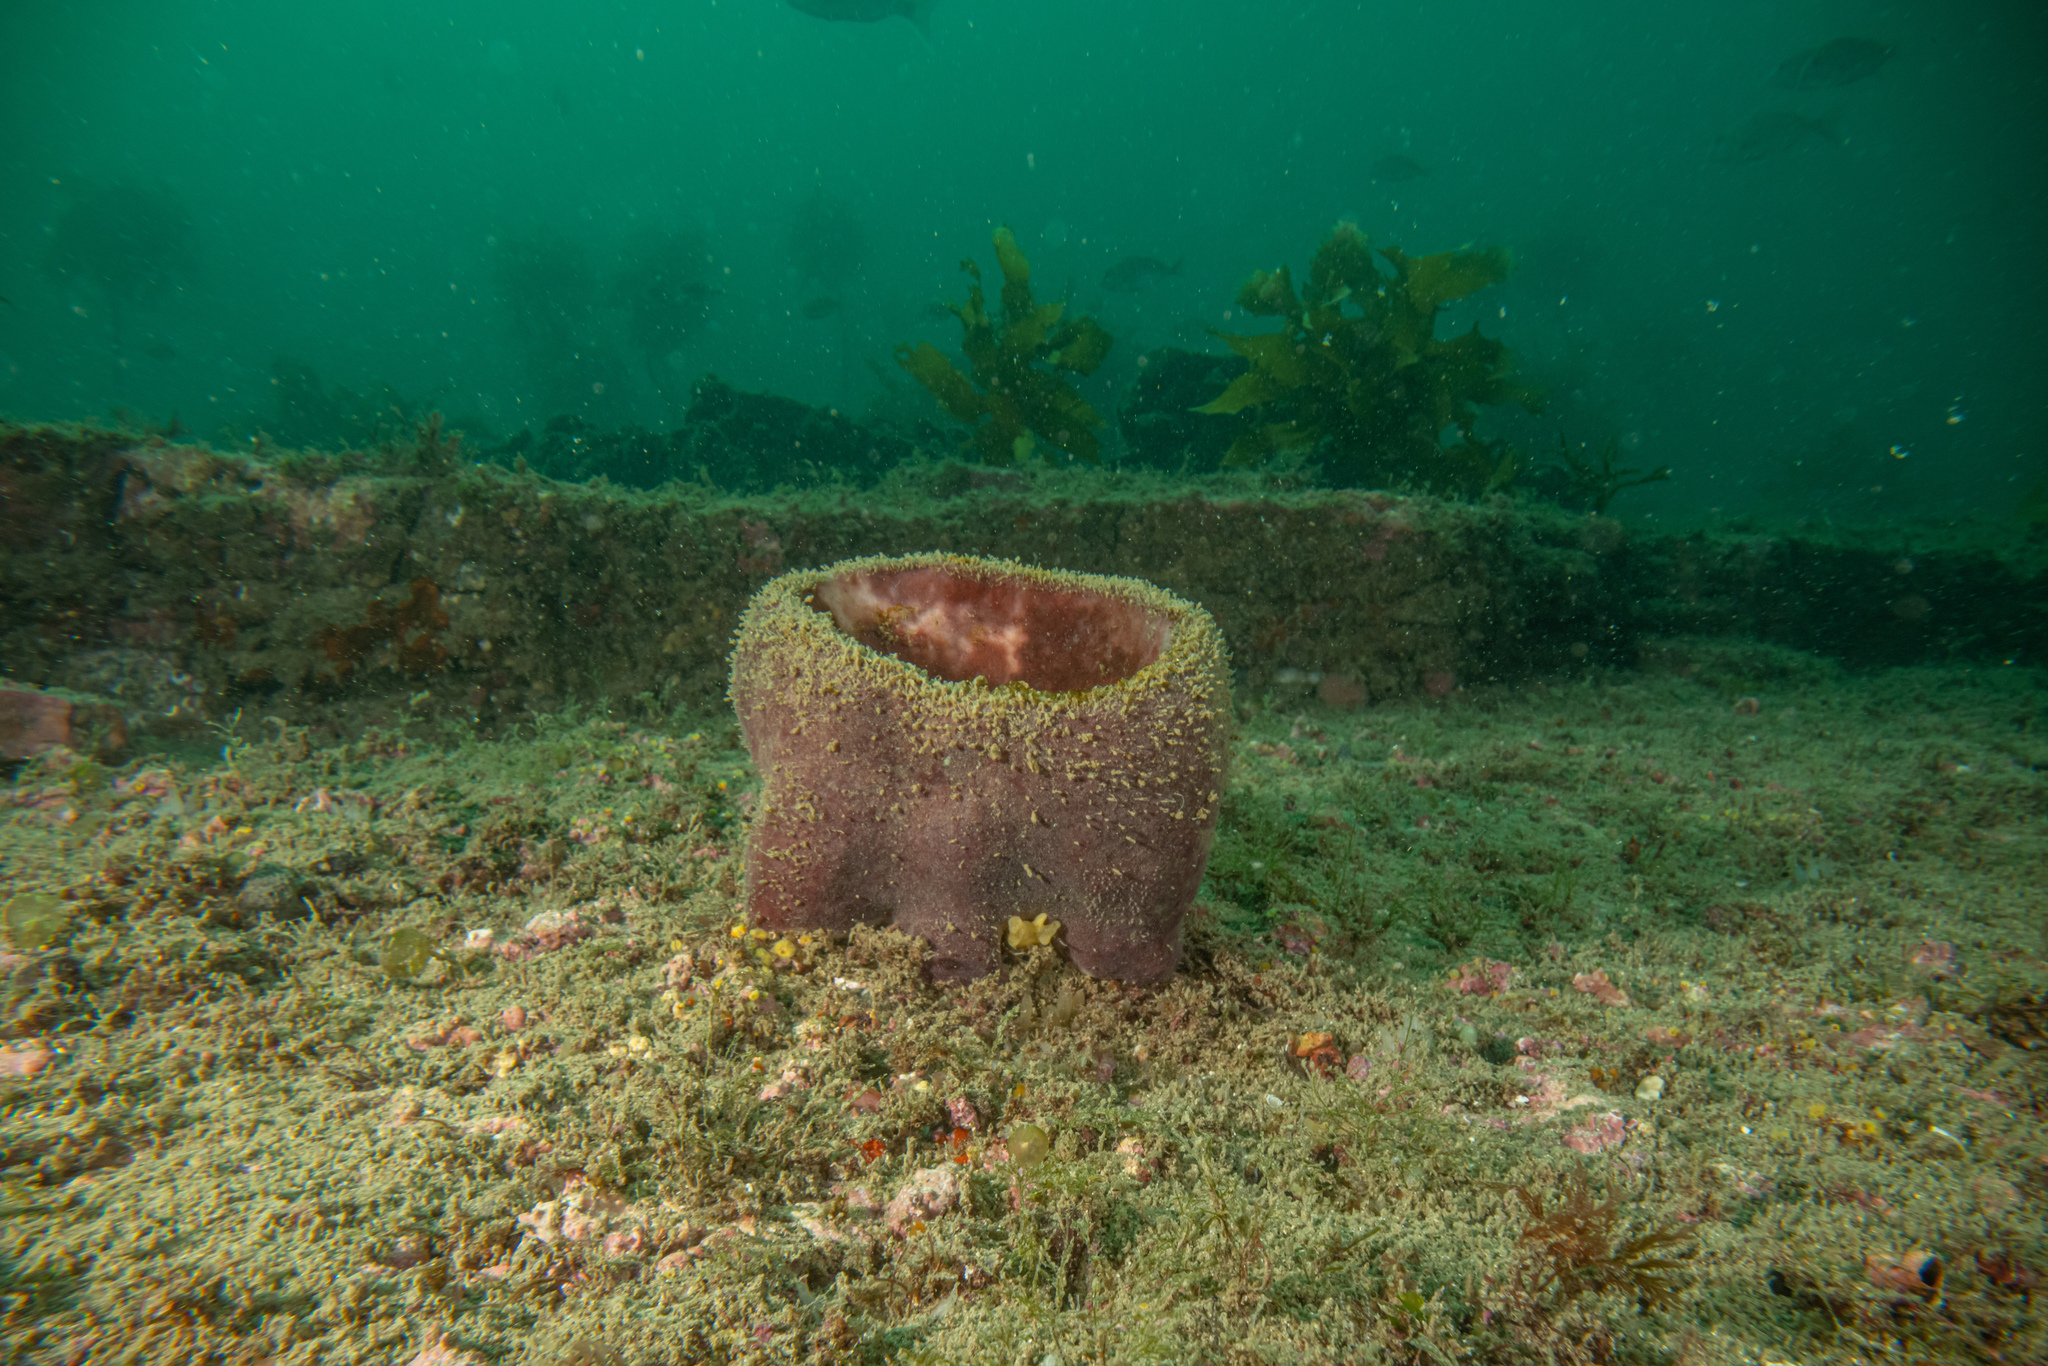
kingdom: Animalia
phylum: Porifera
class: Demospongiae
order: Tetractinellida
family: Ancorinidae
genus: Stelletta
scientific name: Stelletta maori
